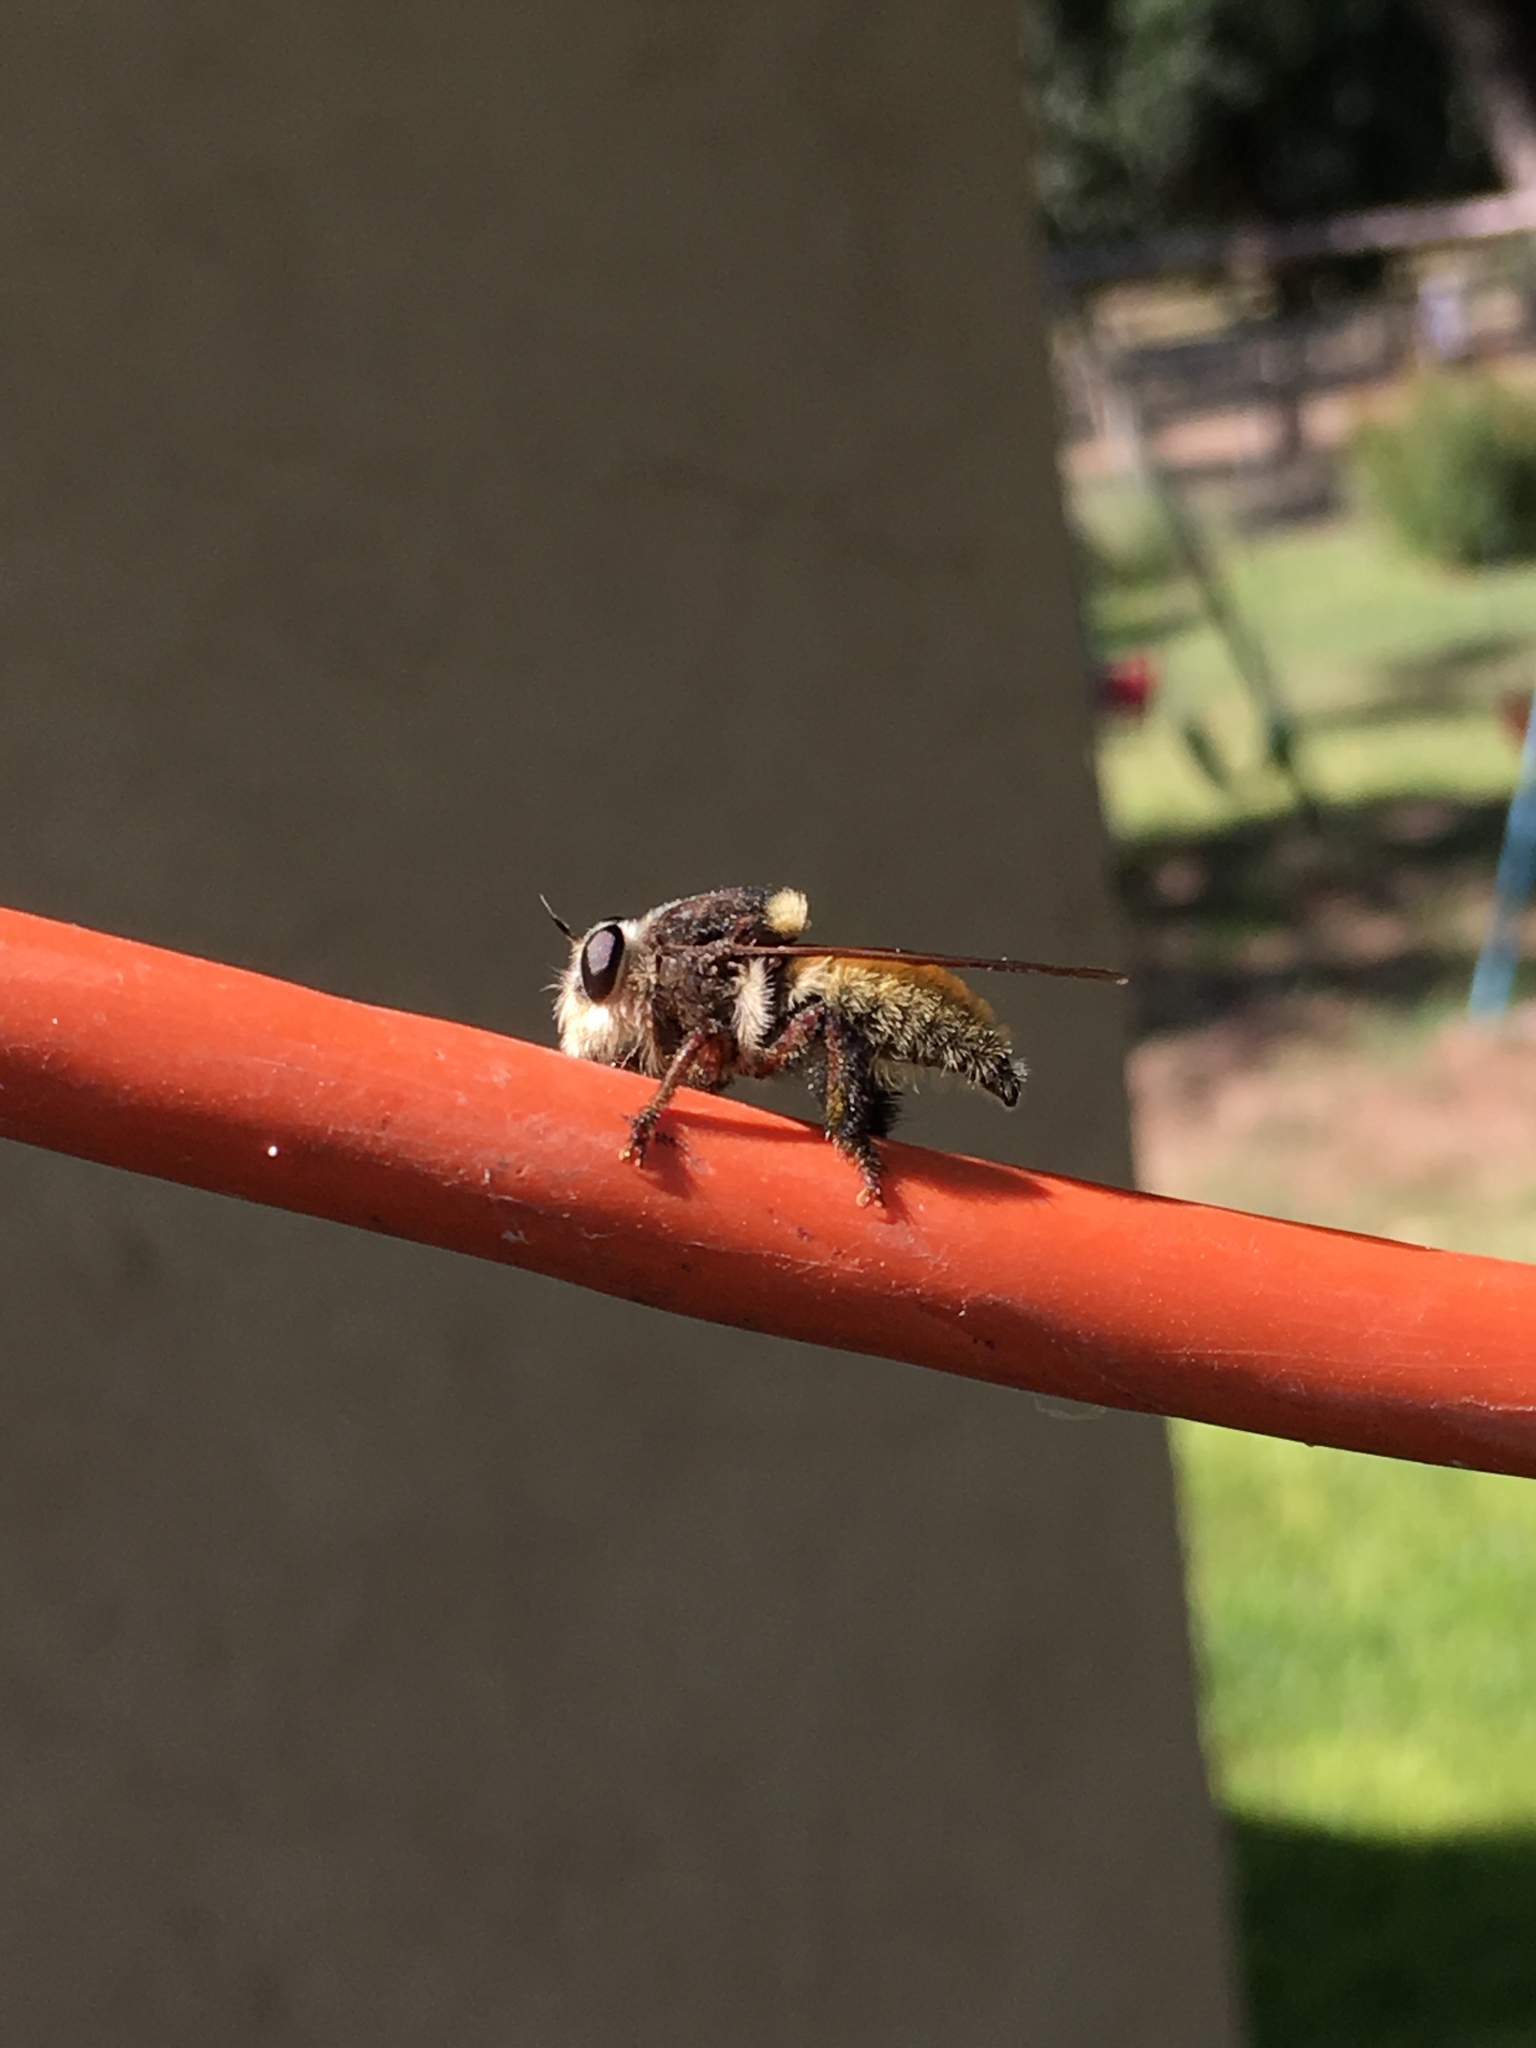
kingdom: Animalia
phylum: Arthropoda
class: Insecta
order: Diptera
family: Asilidae
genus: Mallophora
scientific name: Mallophora fautrix
